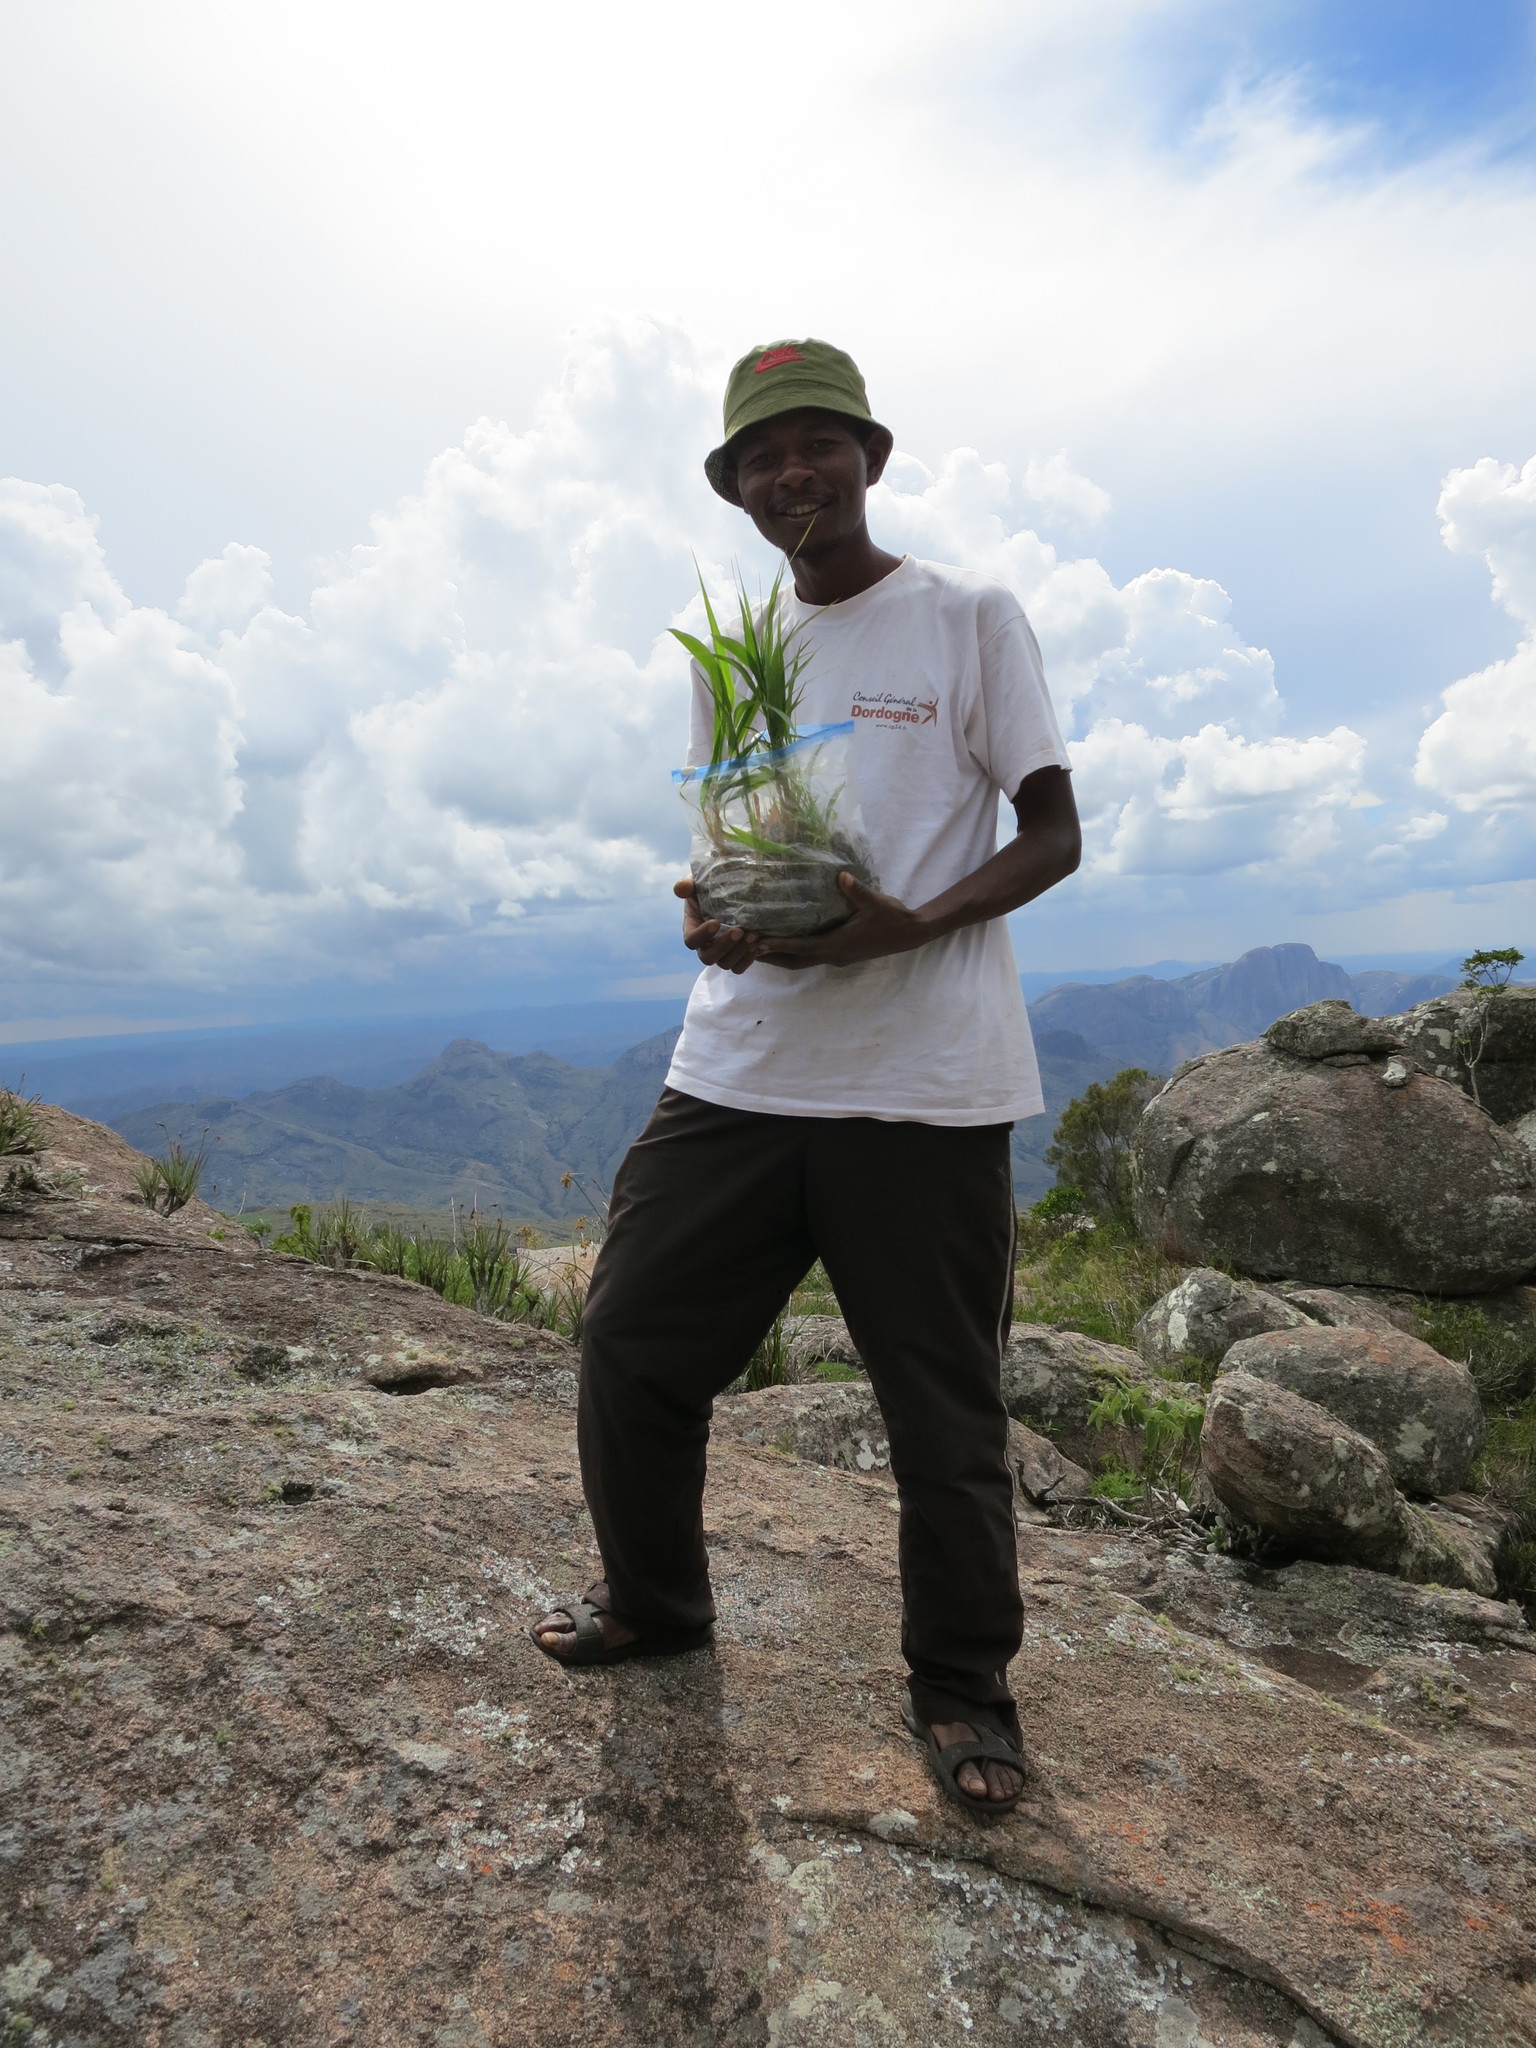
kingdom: Plantae
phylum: Tracheophyta
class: Liliopsida
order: Poales
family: Poaceae
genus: Lecomtella
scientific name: Lecomtella madagascariensis
